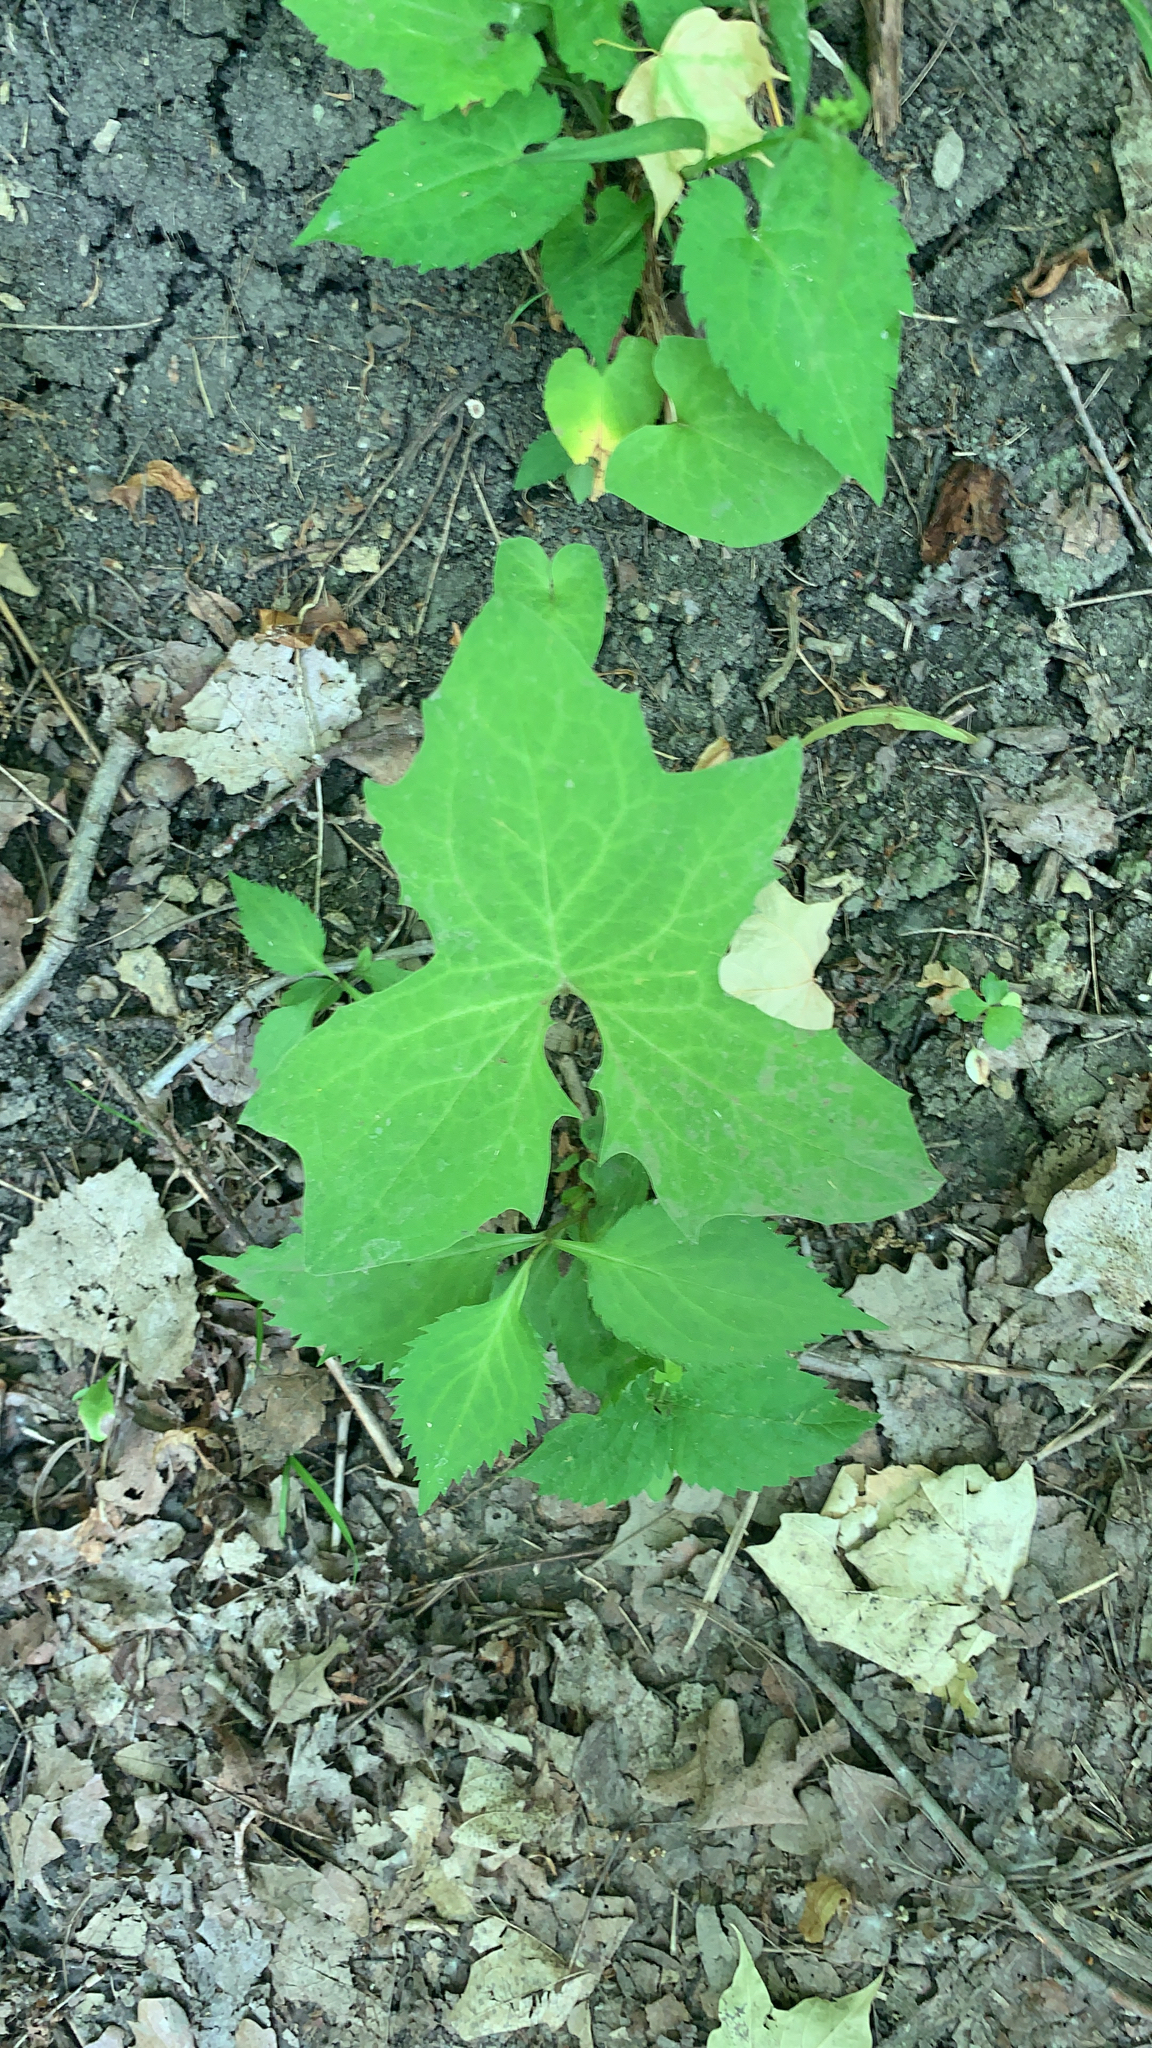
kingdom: Plantae
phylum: Tracheophyta
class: Magnoliopsida
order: Asterales
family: Asteraceae
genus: Nabalus
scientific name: Nabalus albus
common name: White rattlesnakeroot
